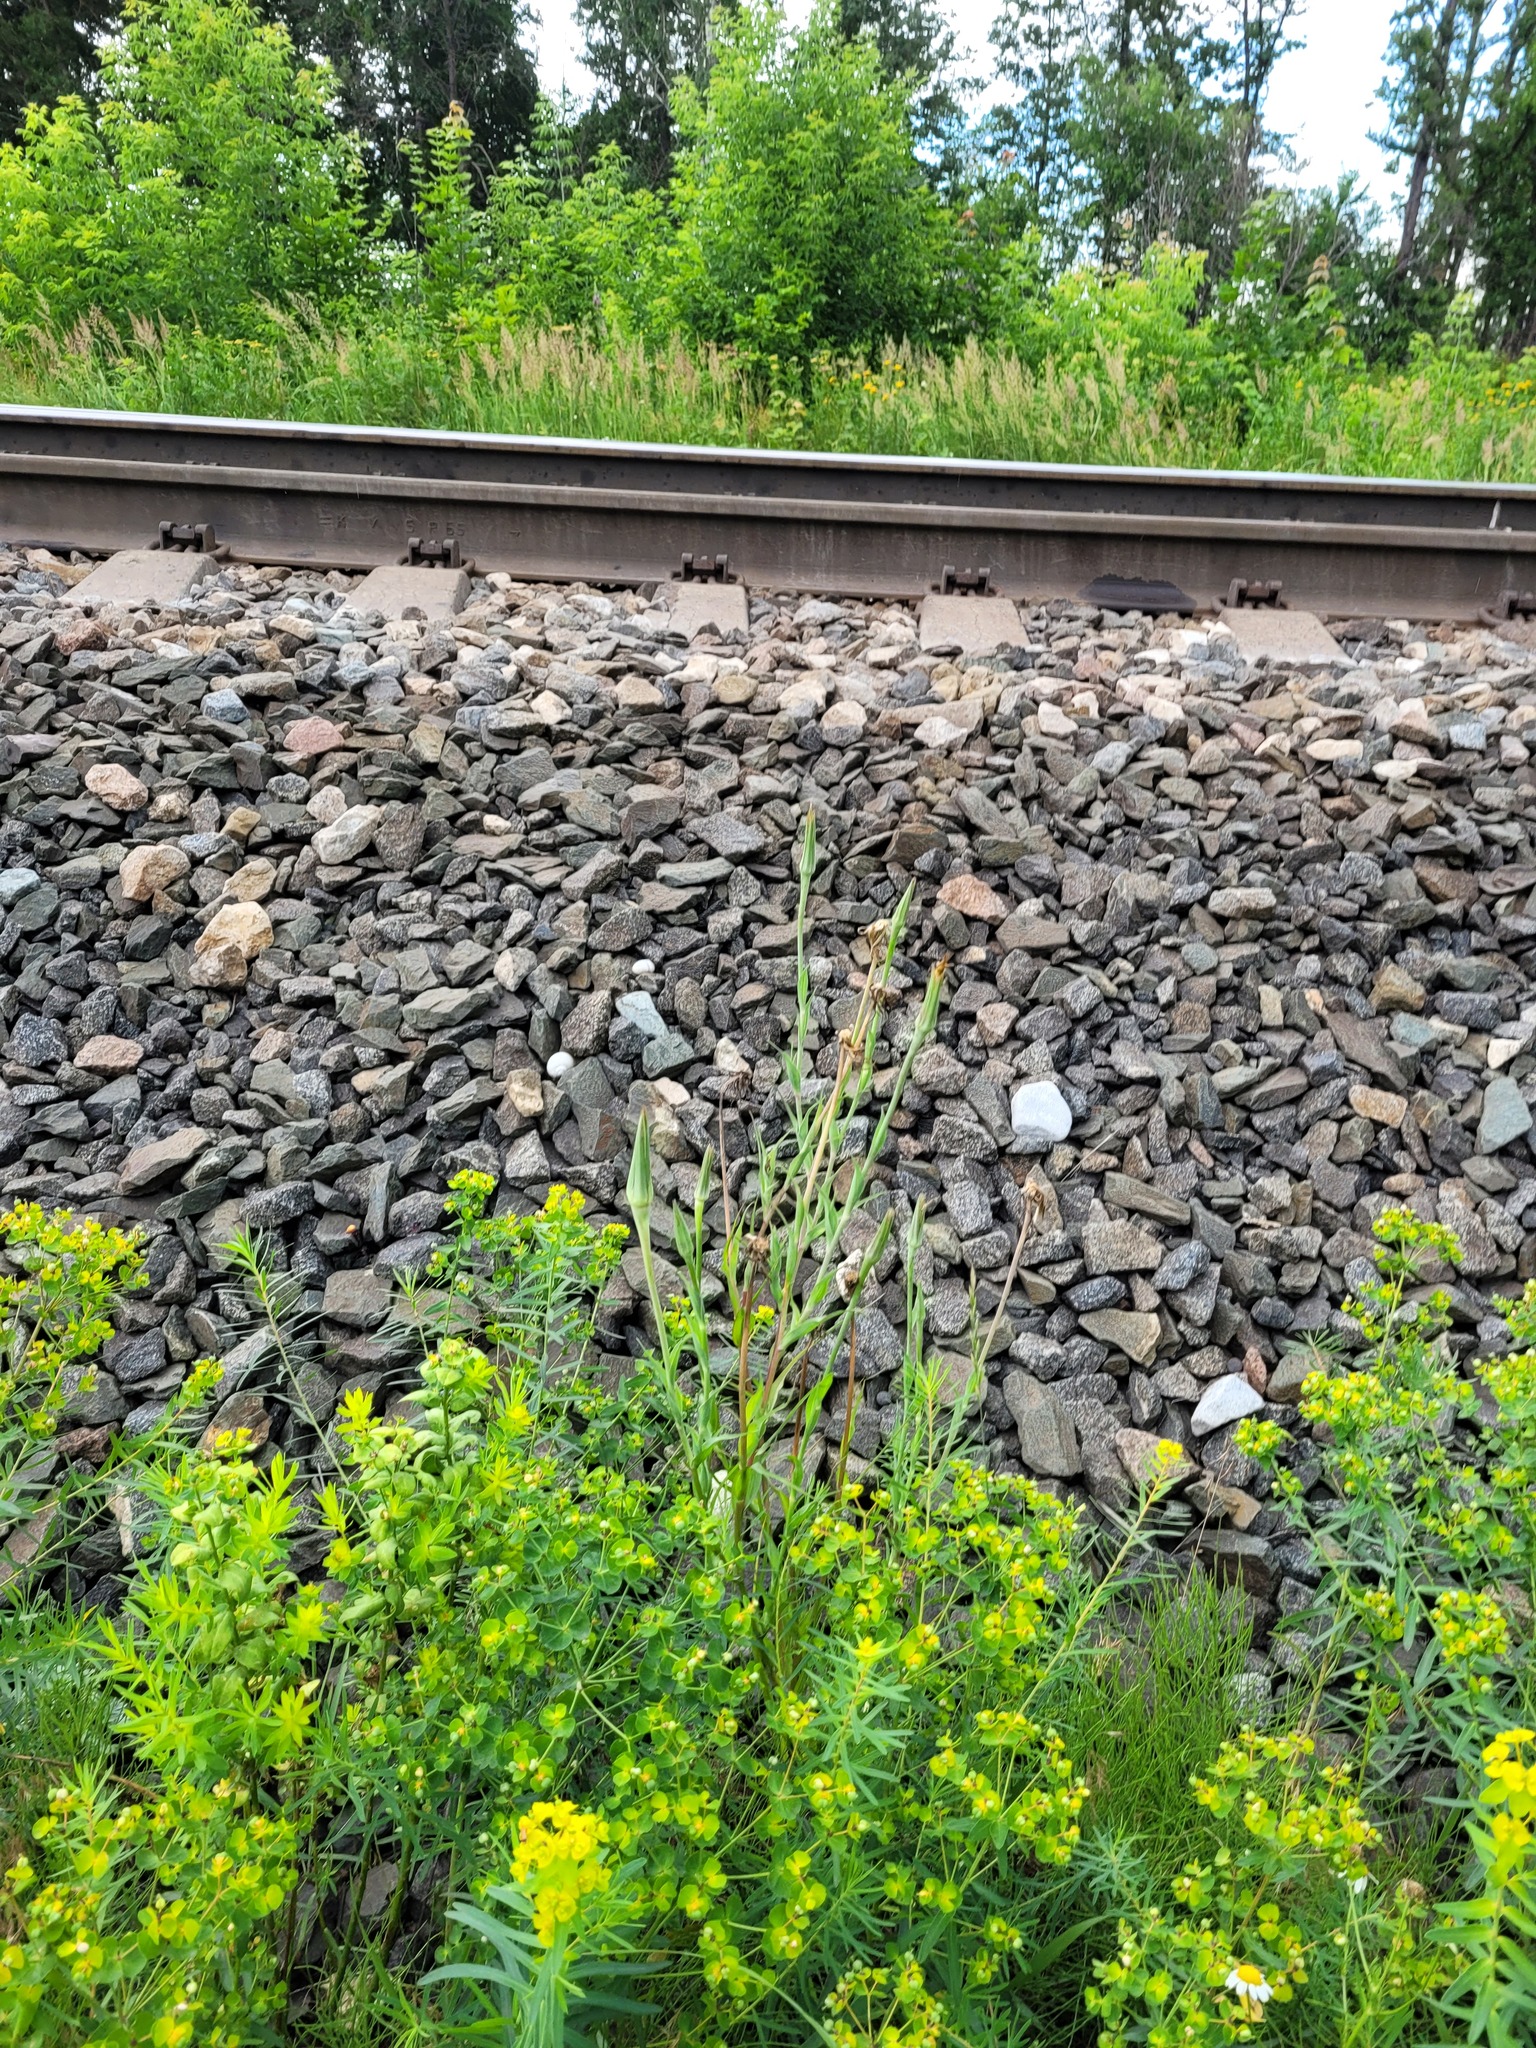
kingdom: Plantae
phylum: Tracheophyta
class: Magnoliopsida
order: Asterales
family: Asteraceae
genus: Tragopogon
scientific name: Tragopogon dubius
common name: Yellow salsify
